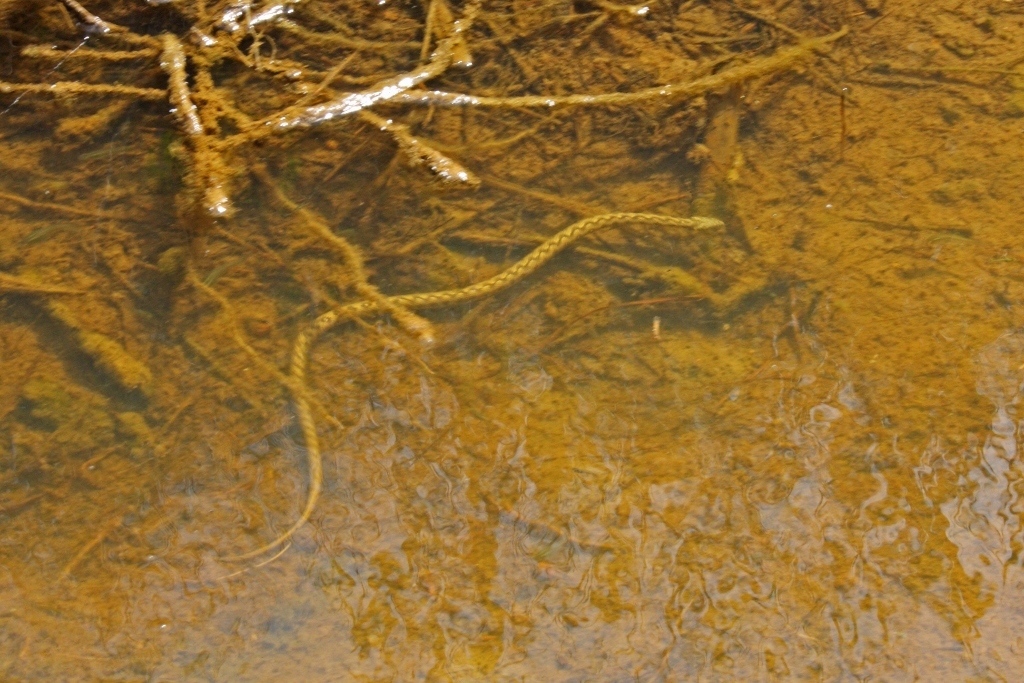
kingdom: Animalia
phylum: Chordata
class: Squamata
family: Colubridae
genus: Natrix
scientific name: Natrix maura
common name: Viperine water snake
